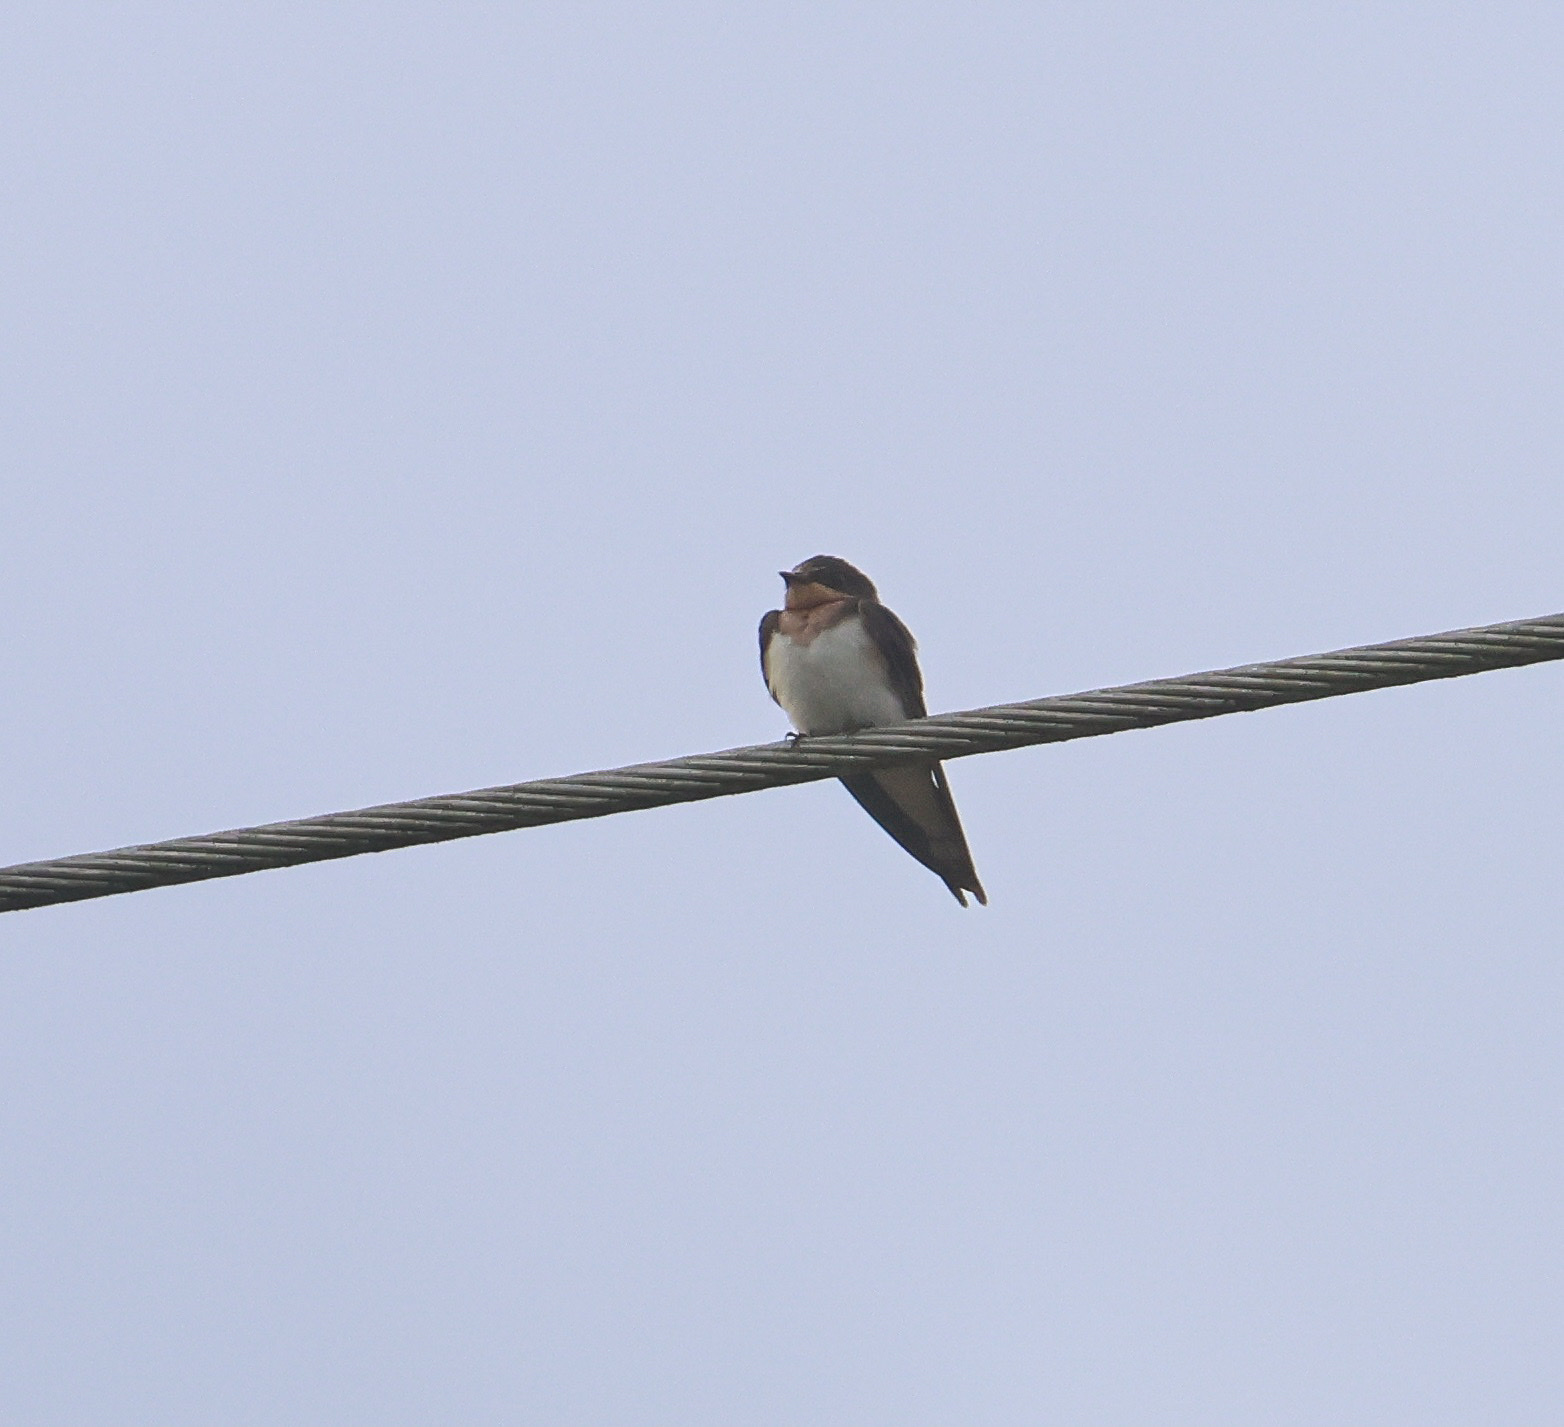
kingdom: Animalia
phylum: Chordata
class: Aves
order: Passeriformes
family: Hirundinidae
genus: Hirundo
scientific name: Hirundo rustica
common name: Barn swallow
